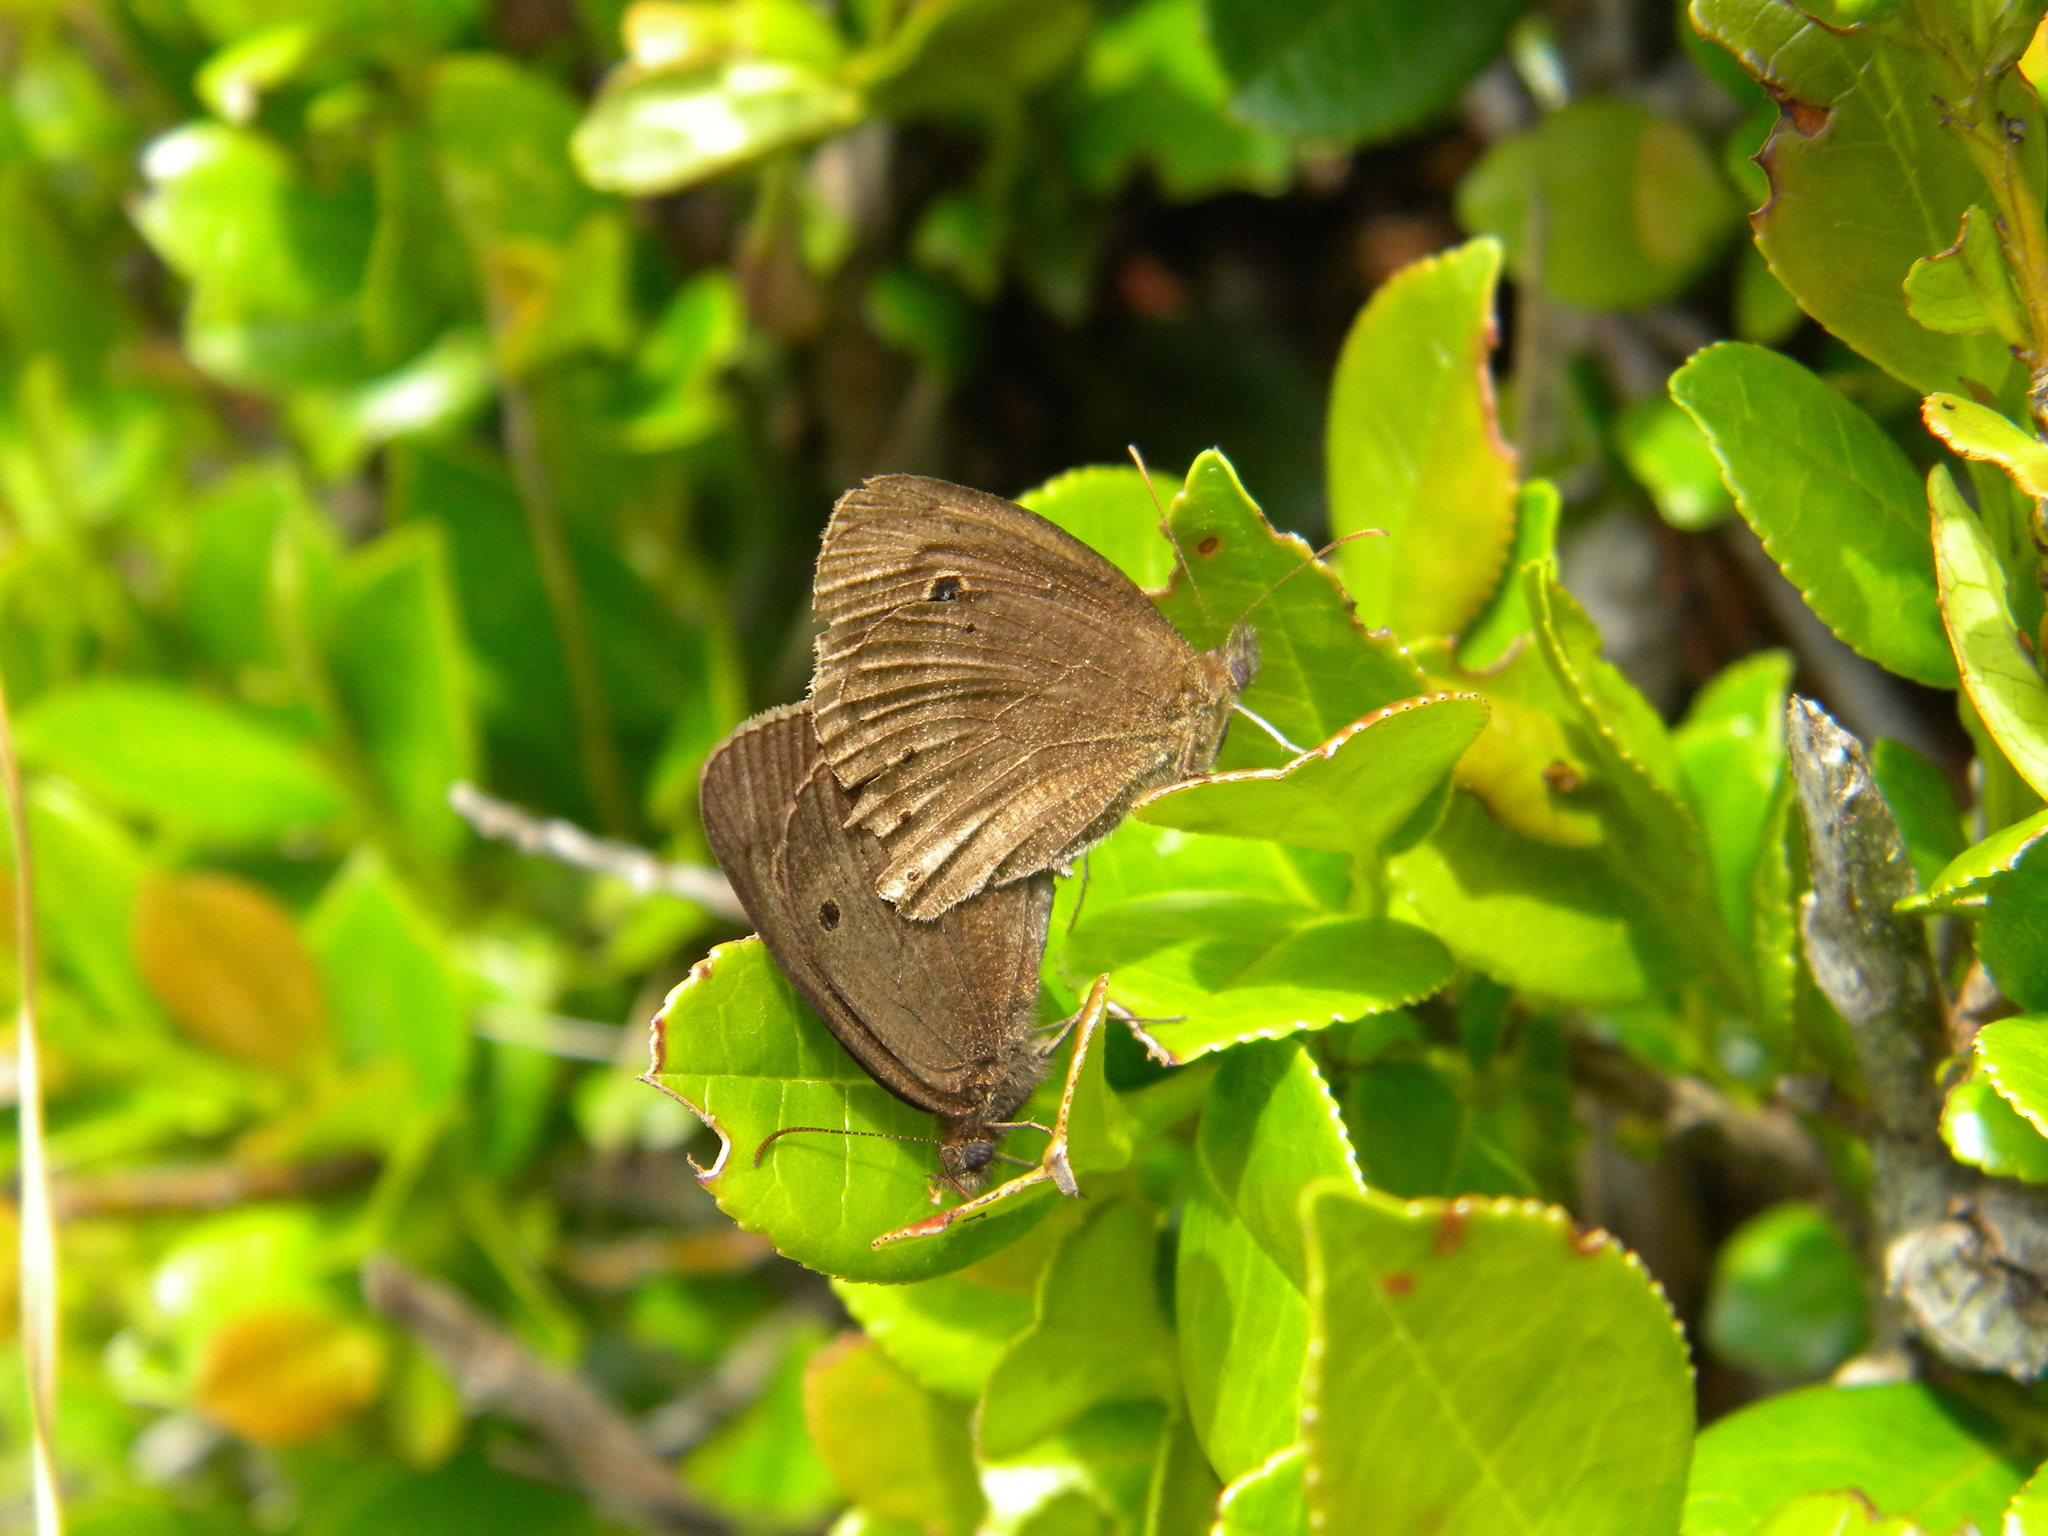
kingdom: Animalia
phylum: Arthropoda
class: Insecta
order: Lepidoptera
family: Nymphalidae
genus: Ypthima
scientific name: Ypthima ypthimoides
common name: Palni four-ring
